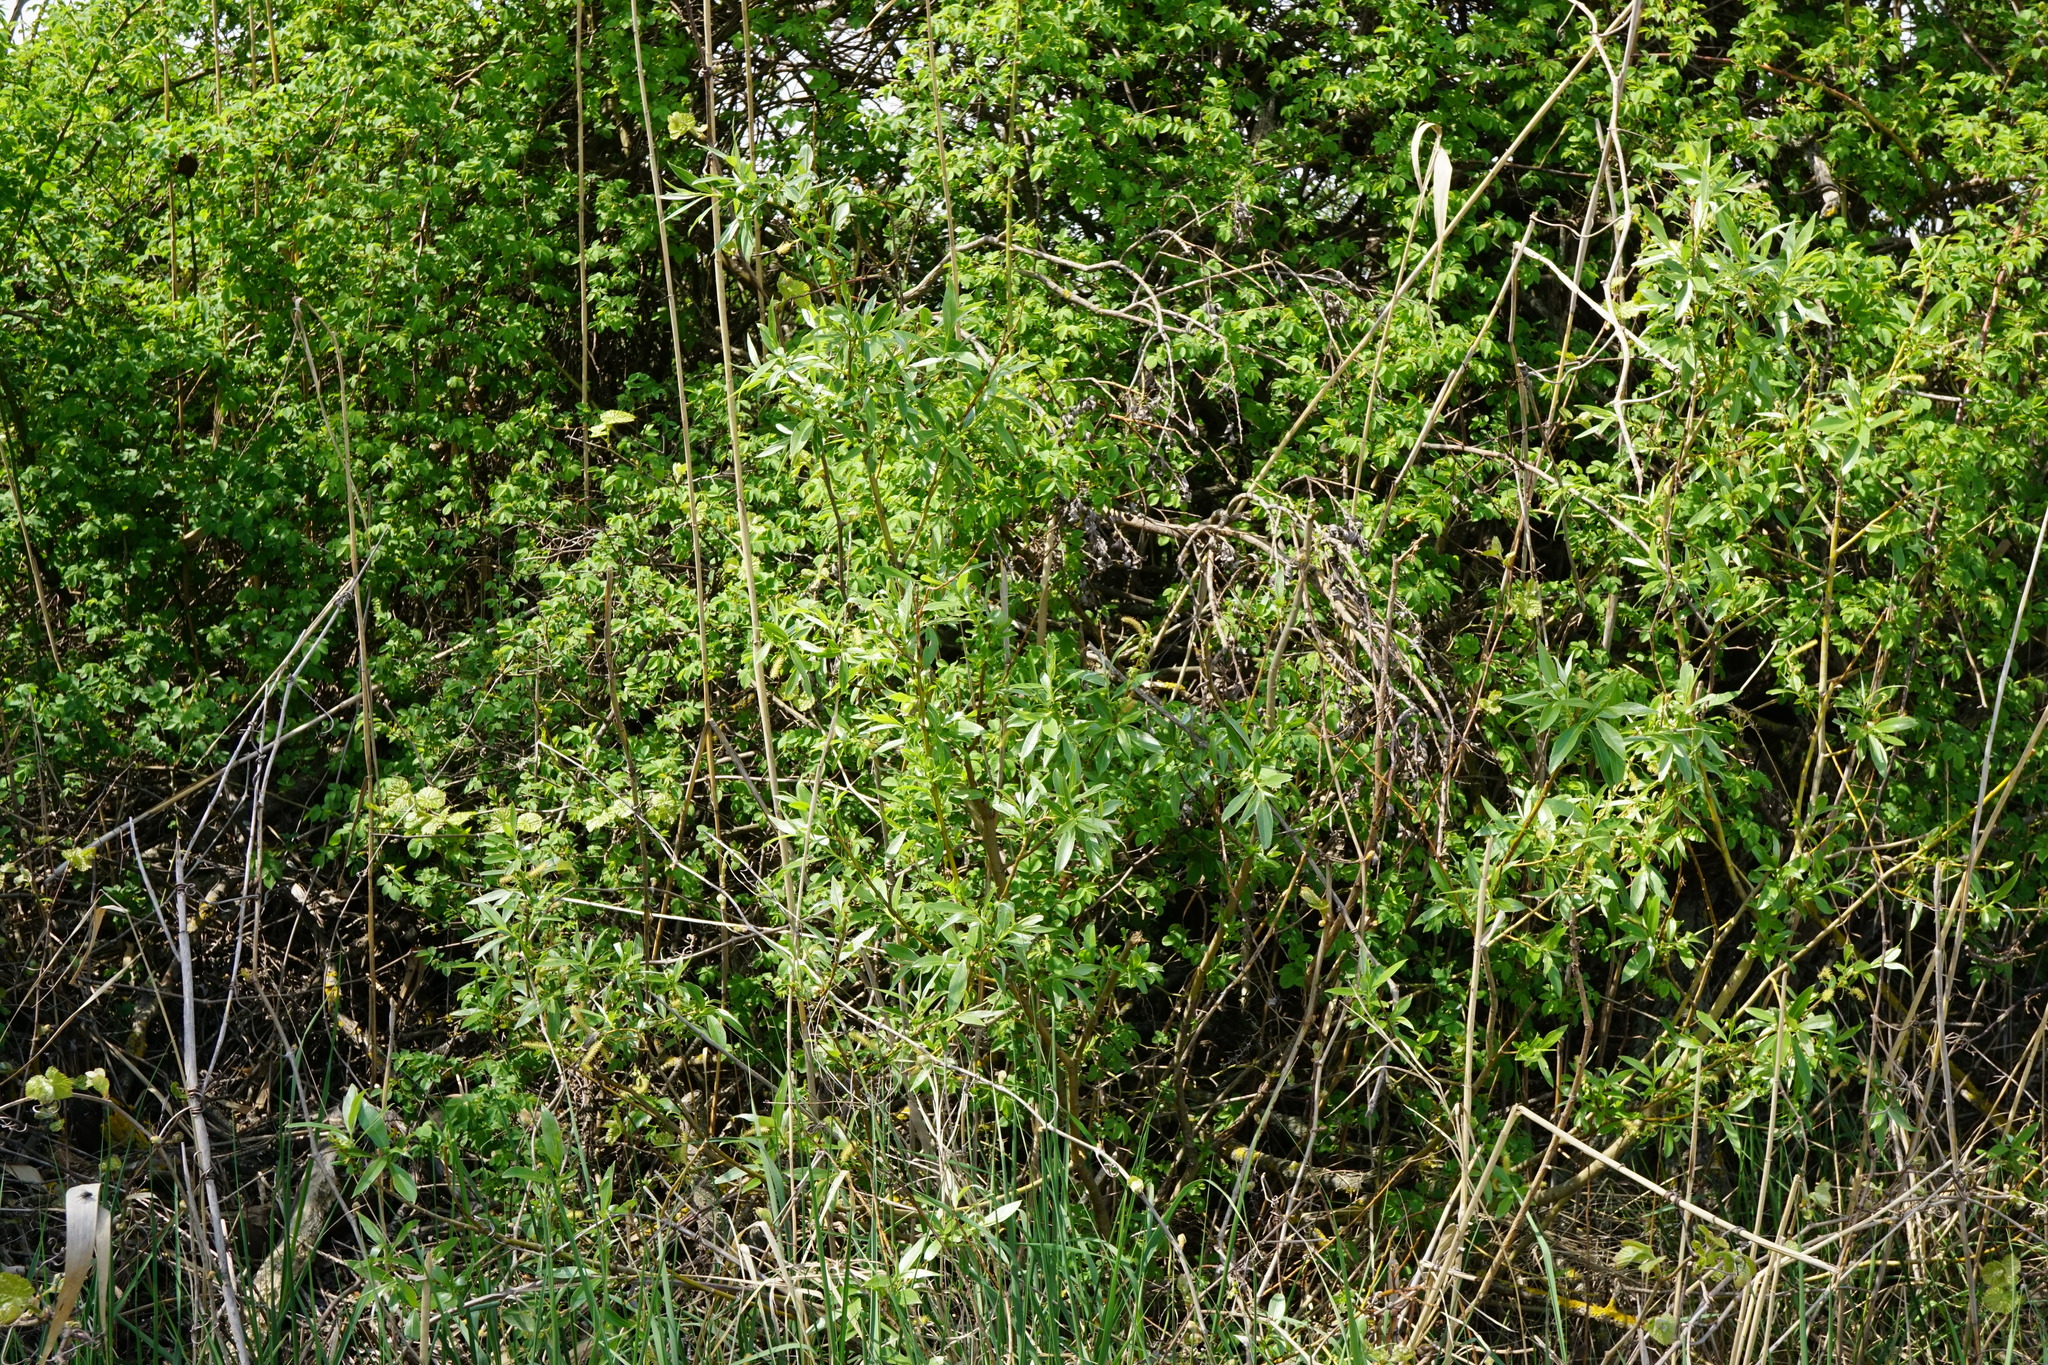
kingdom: Plantae
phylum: Tracheophyta
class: Magnoliopsida
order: Malpighiales
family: Salicaceae
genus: Salix
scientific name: Salix alba
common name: White willow
